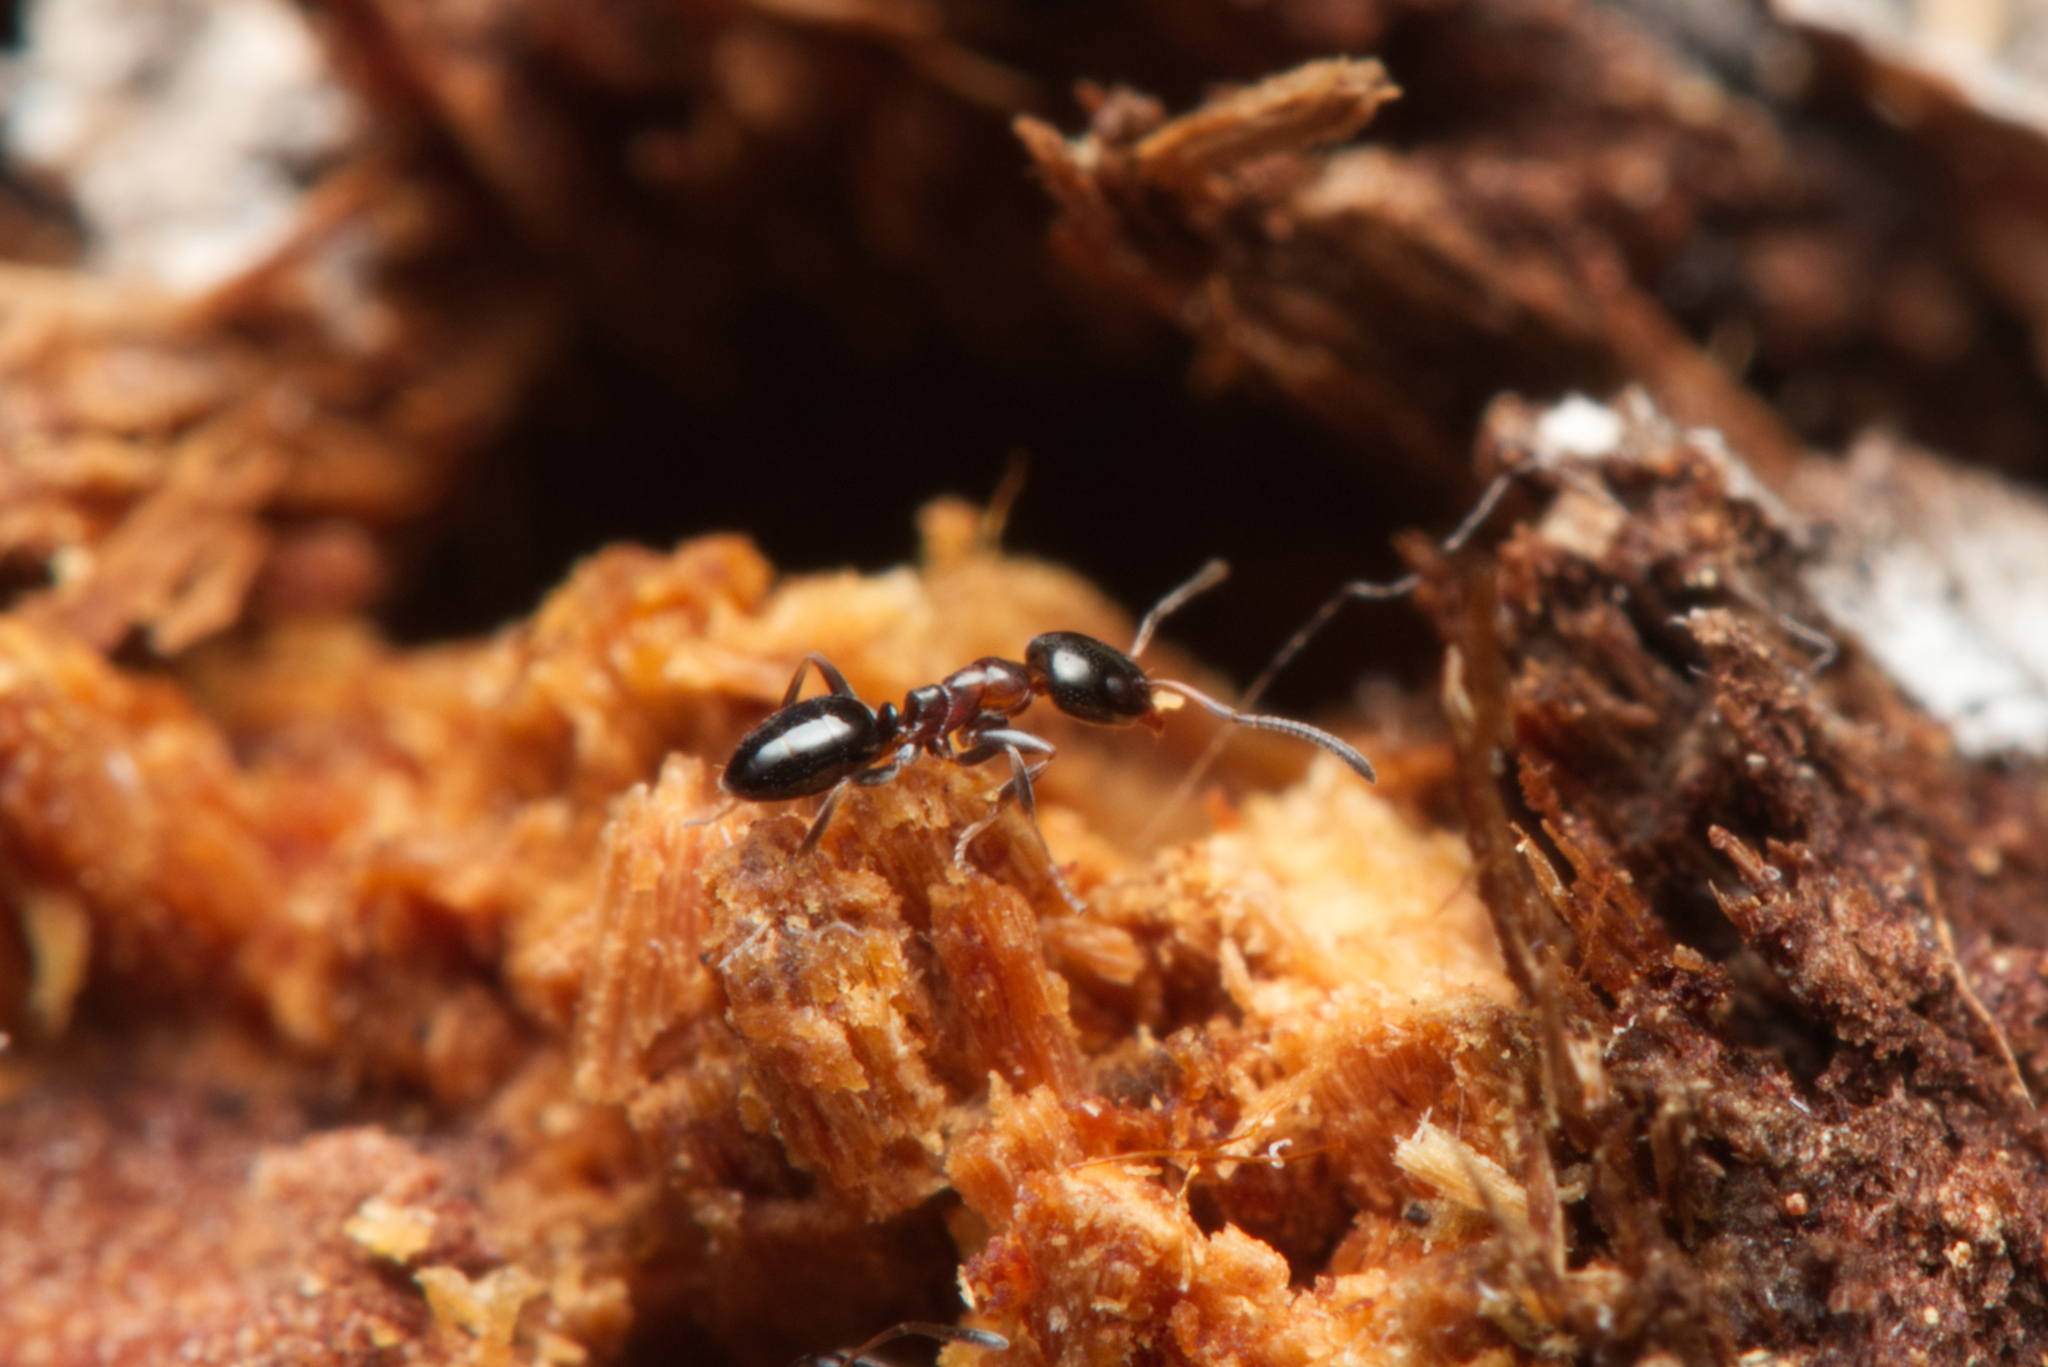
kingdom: Animalia
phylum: Arthropoda
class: Insecta
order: Hymenoptera
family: Formicidae
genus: Ochetellus
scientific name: Ochetellus glaber
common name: Ant
